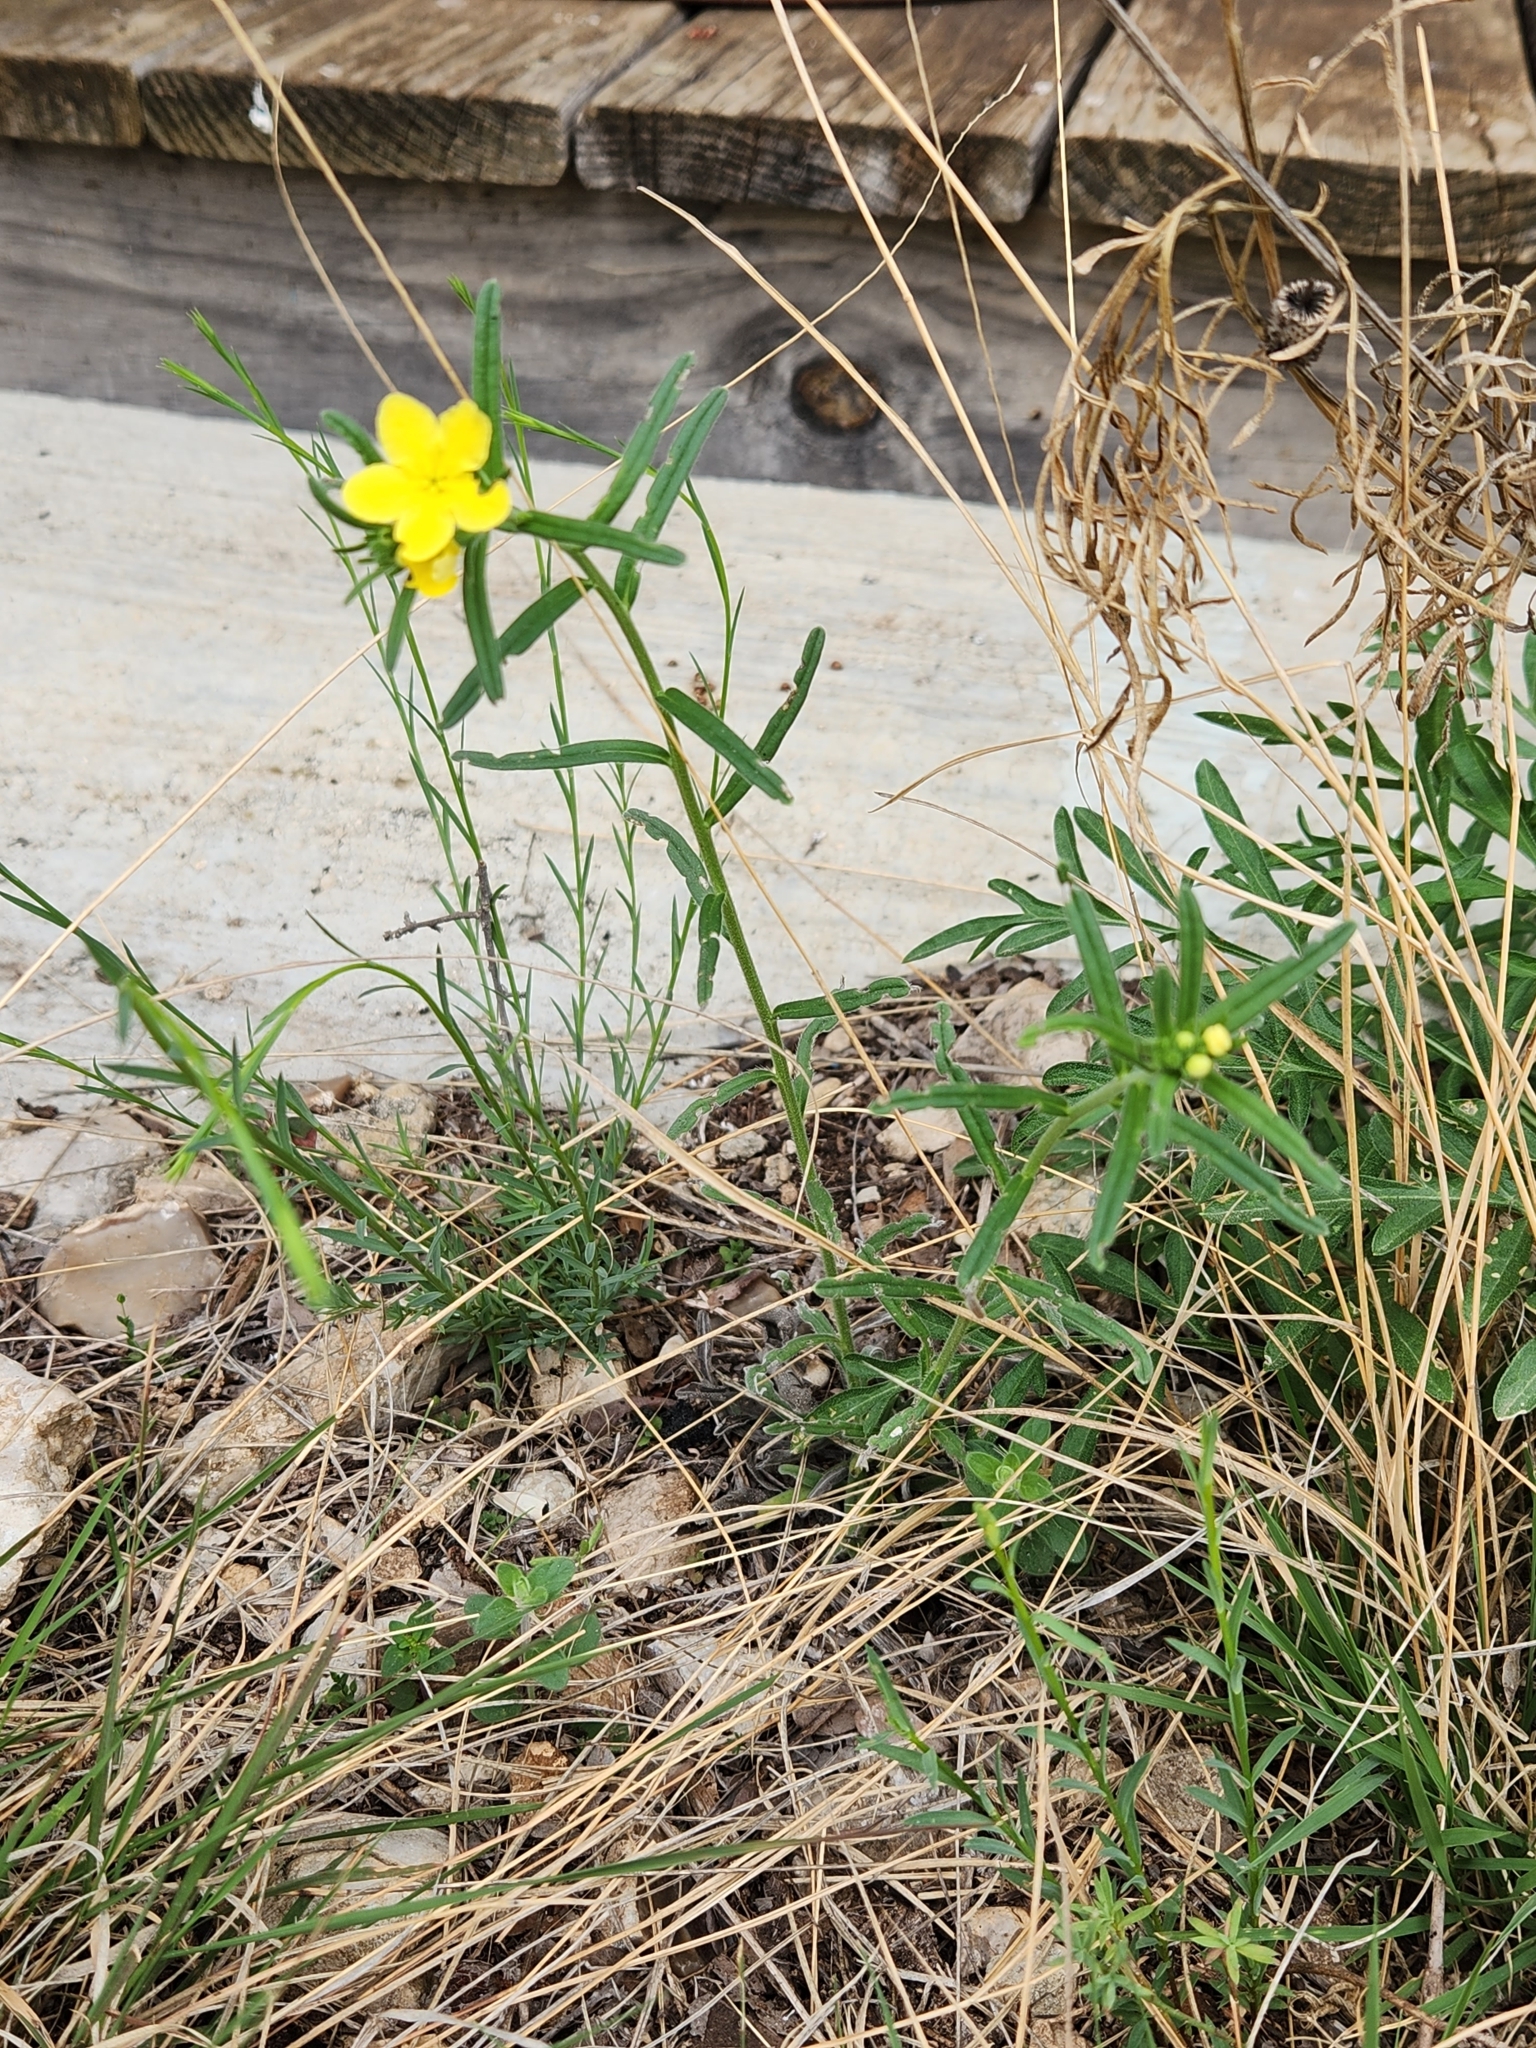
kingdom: Plantae
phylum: Tracheophyta
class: Magnoliopsida
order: Boraginales
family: Boraginaceae
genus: Lithospermum
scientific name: Lithospermum mirabile
